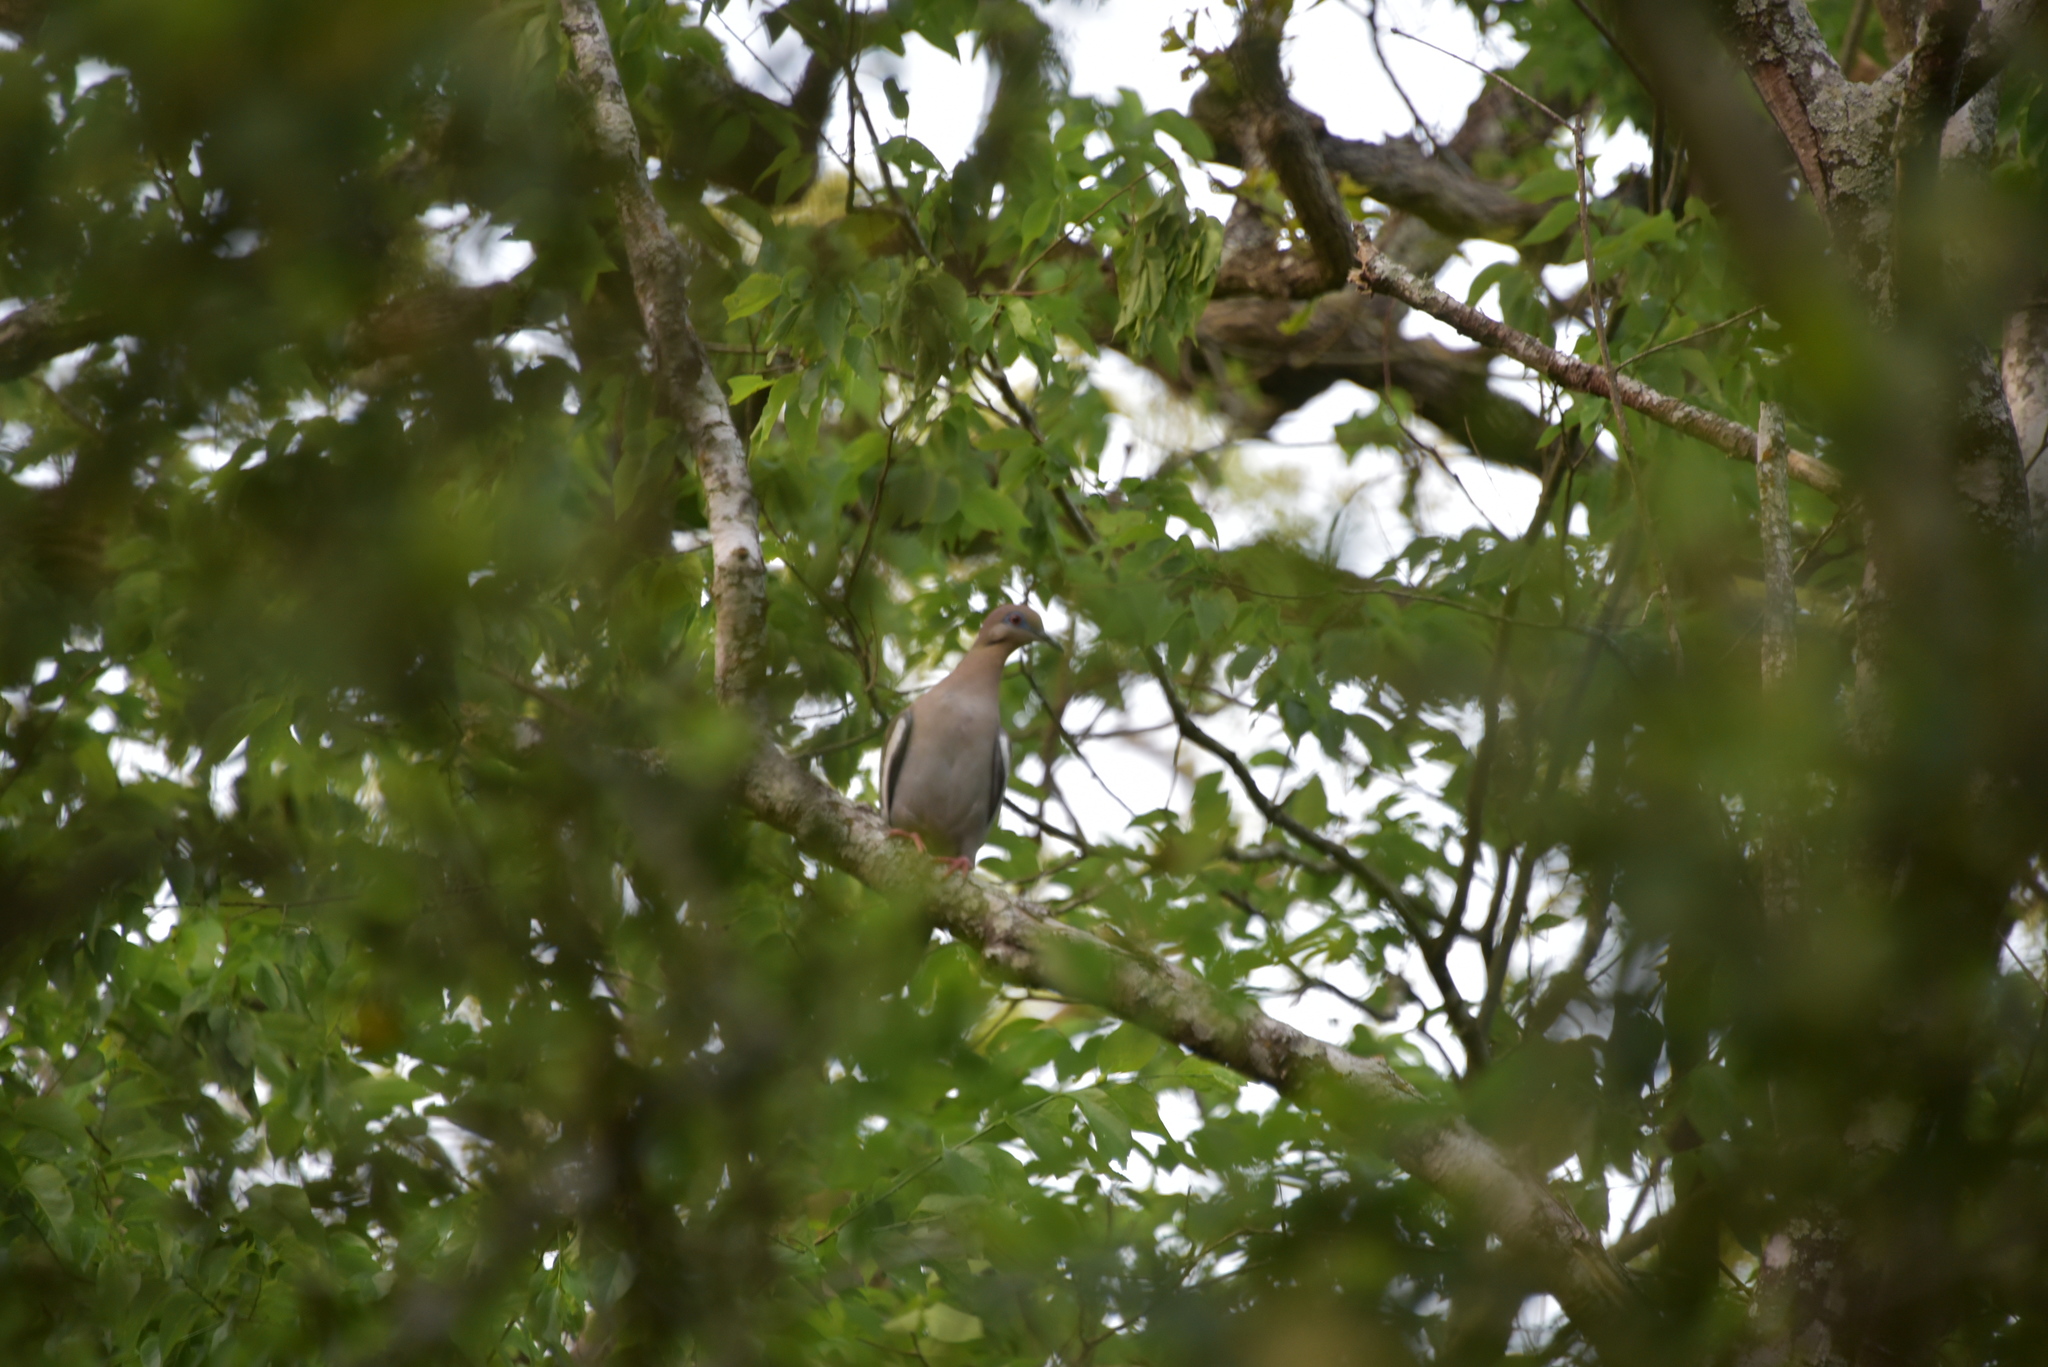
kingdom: Animalia
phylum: Chordata
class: Aves
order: Columbiformes
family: Columbidae
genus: Zenaida
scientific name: Zenaida asiatica
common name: White-winged dove
